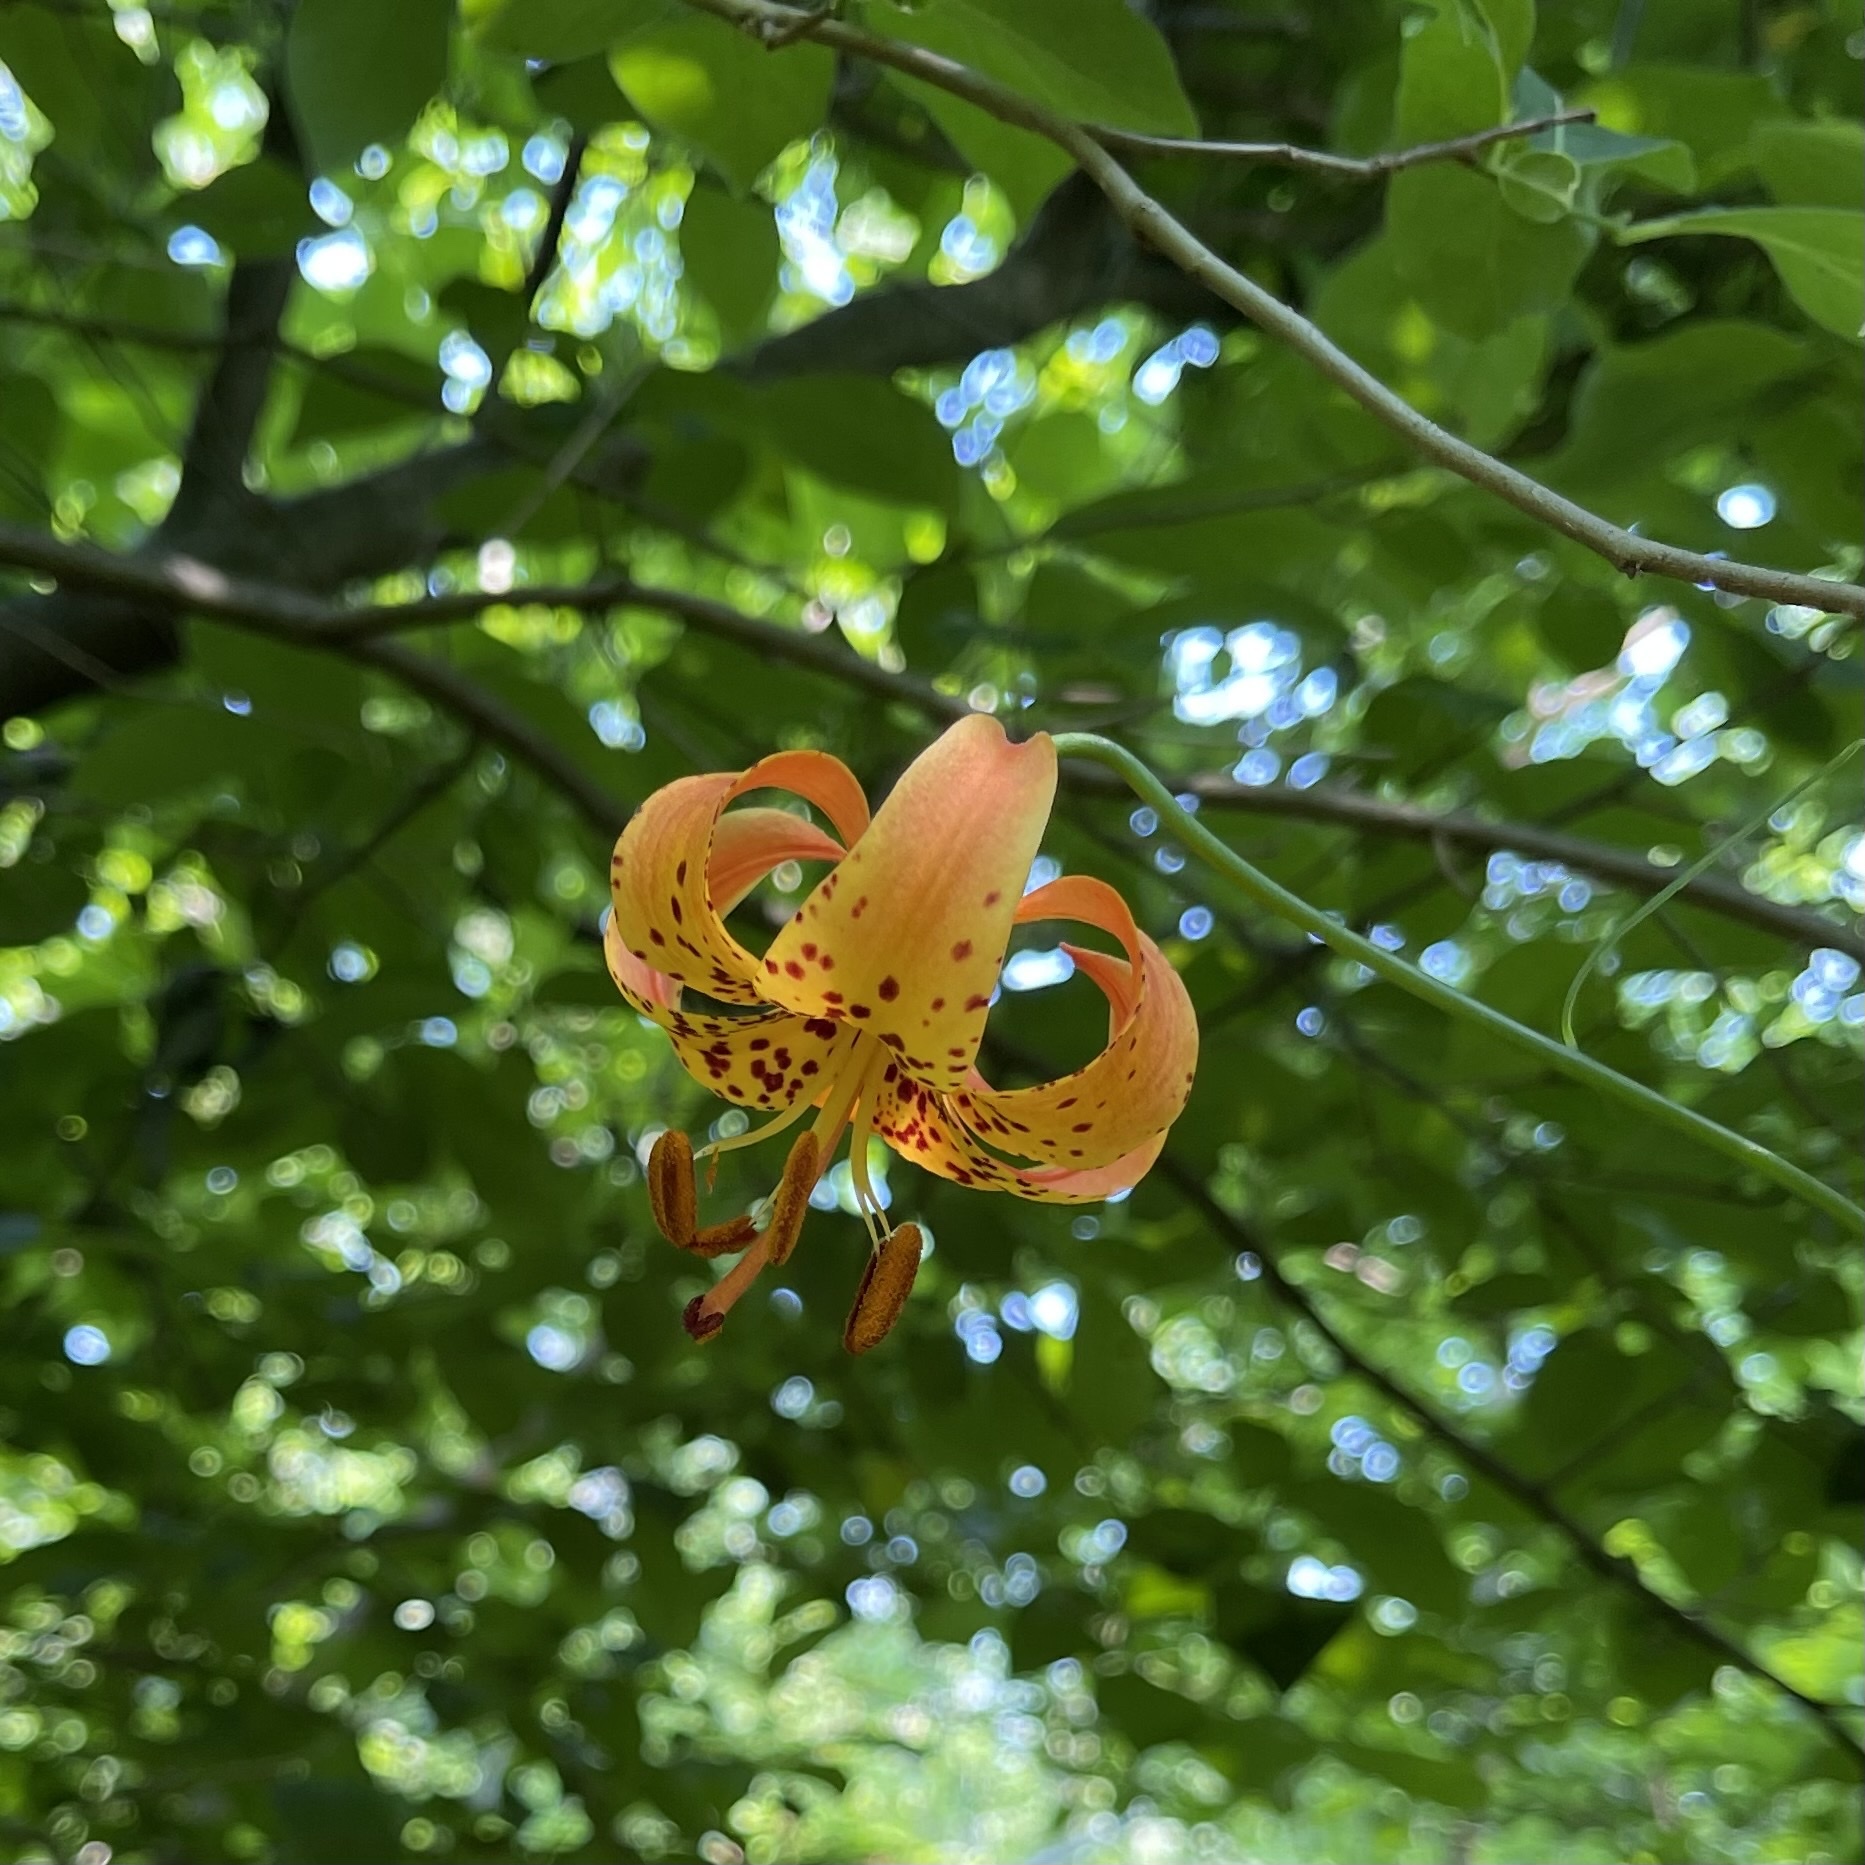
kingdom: Plantae
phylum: Tracheophyta
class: Liliopsida
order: Liliales
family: Liliaceae
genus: Lilium
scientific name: Lilium michiganense
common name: Michigan lily
